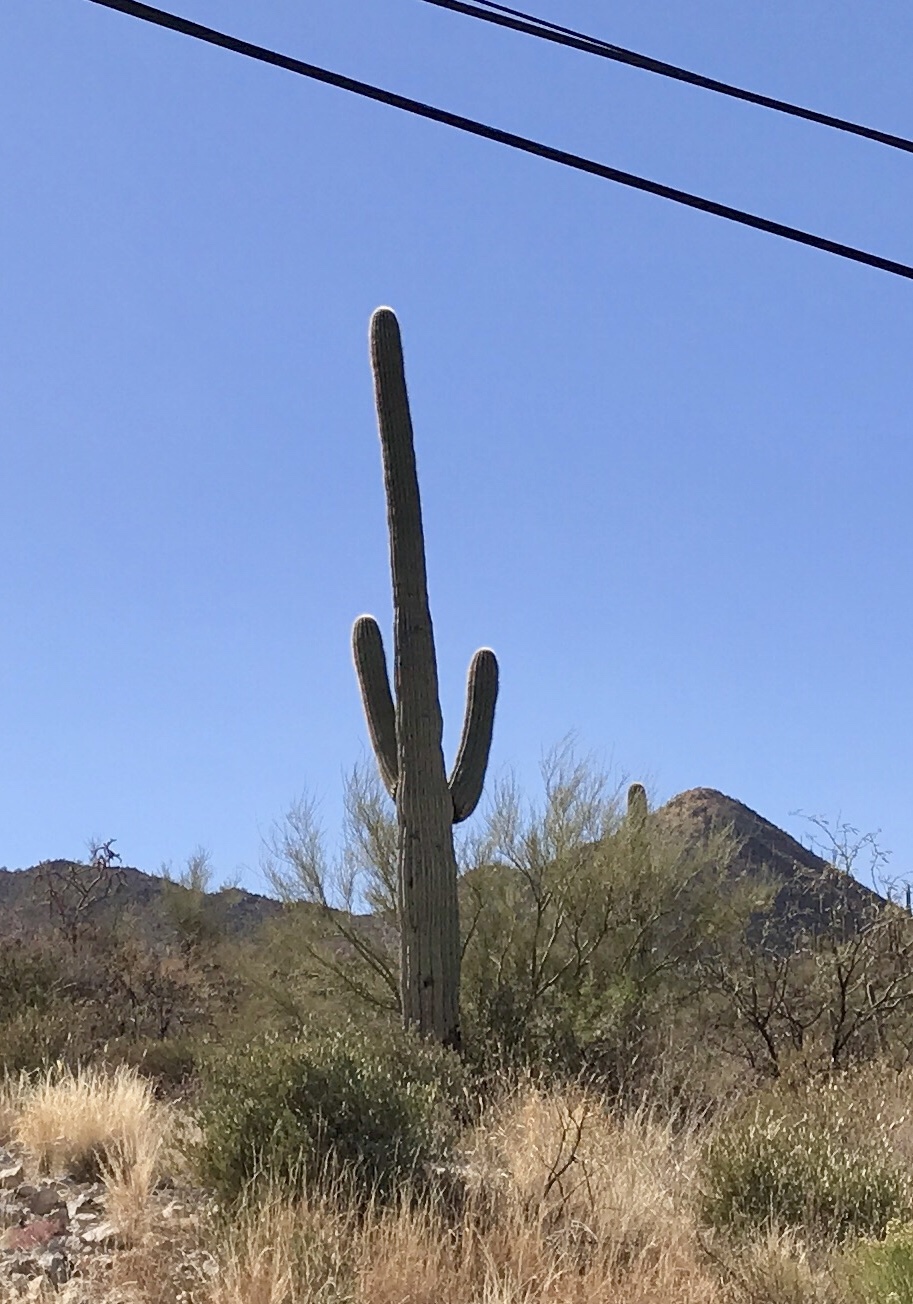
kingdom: Plantae
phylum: Tracheophyta
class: Magnoliopsida
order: Caryophyllales
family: Cactaceae
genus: Carnegiea
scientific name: Carnegiea gigantea
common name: Saguaro
